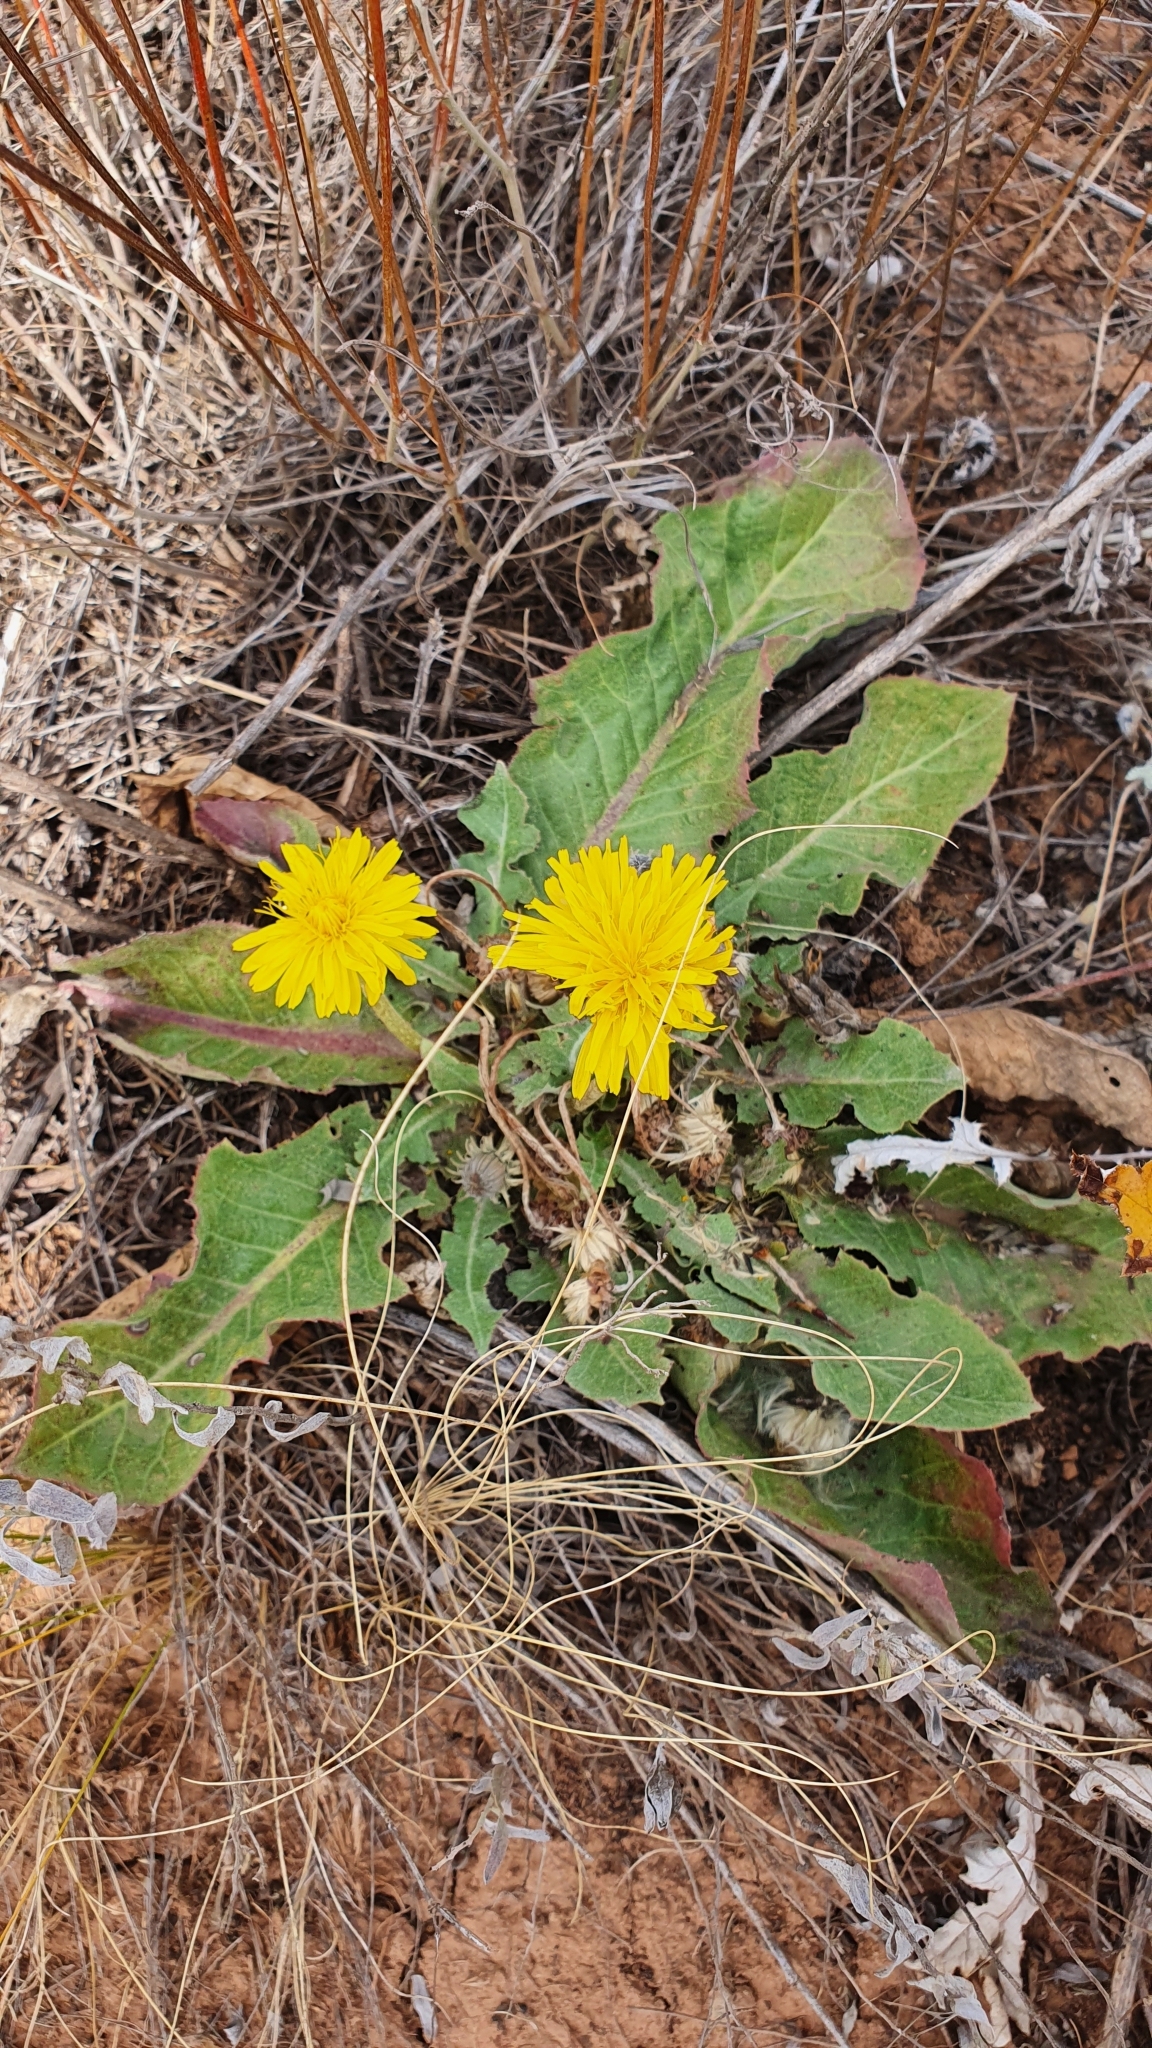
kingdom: Plantae
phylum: Tracheophyta
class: Magnoliopsida
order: Asterales
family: Asteraceae
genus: Taraxacum
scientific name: Taraxacum serotinum
